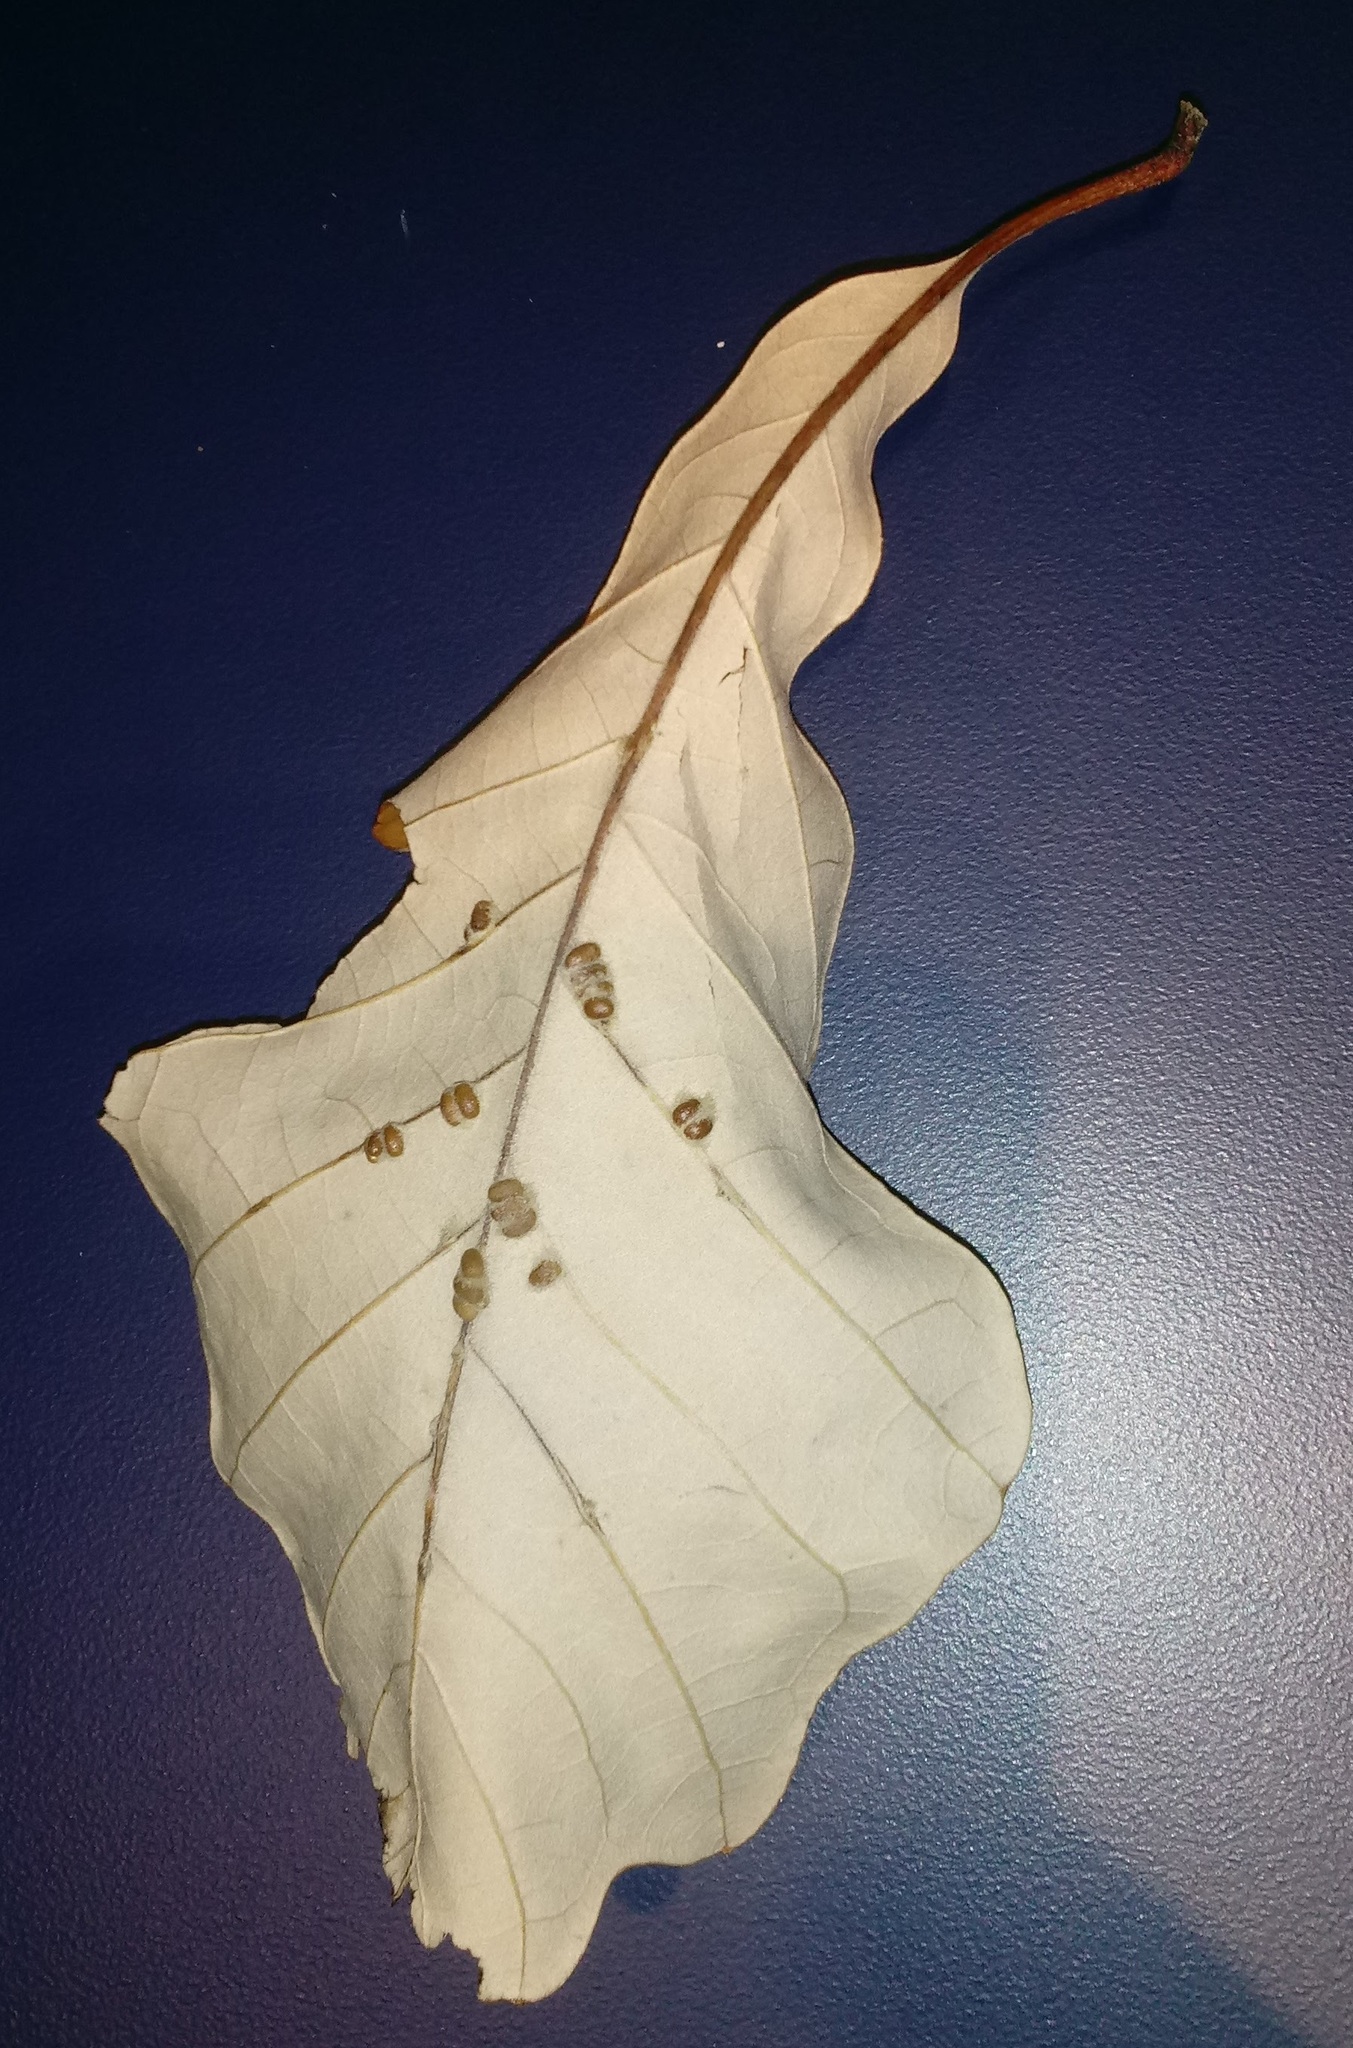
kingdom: Animalia
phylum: Arthropoda
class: Insecta
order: Hymenoptera
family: Cynipidae
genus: Andricus
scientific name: Andricus Druon ignotum
